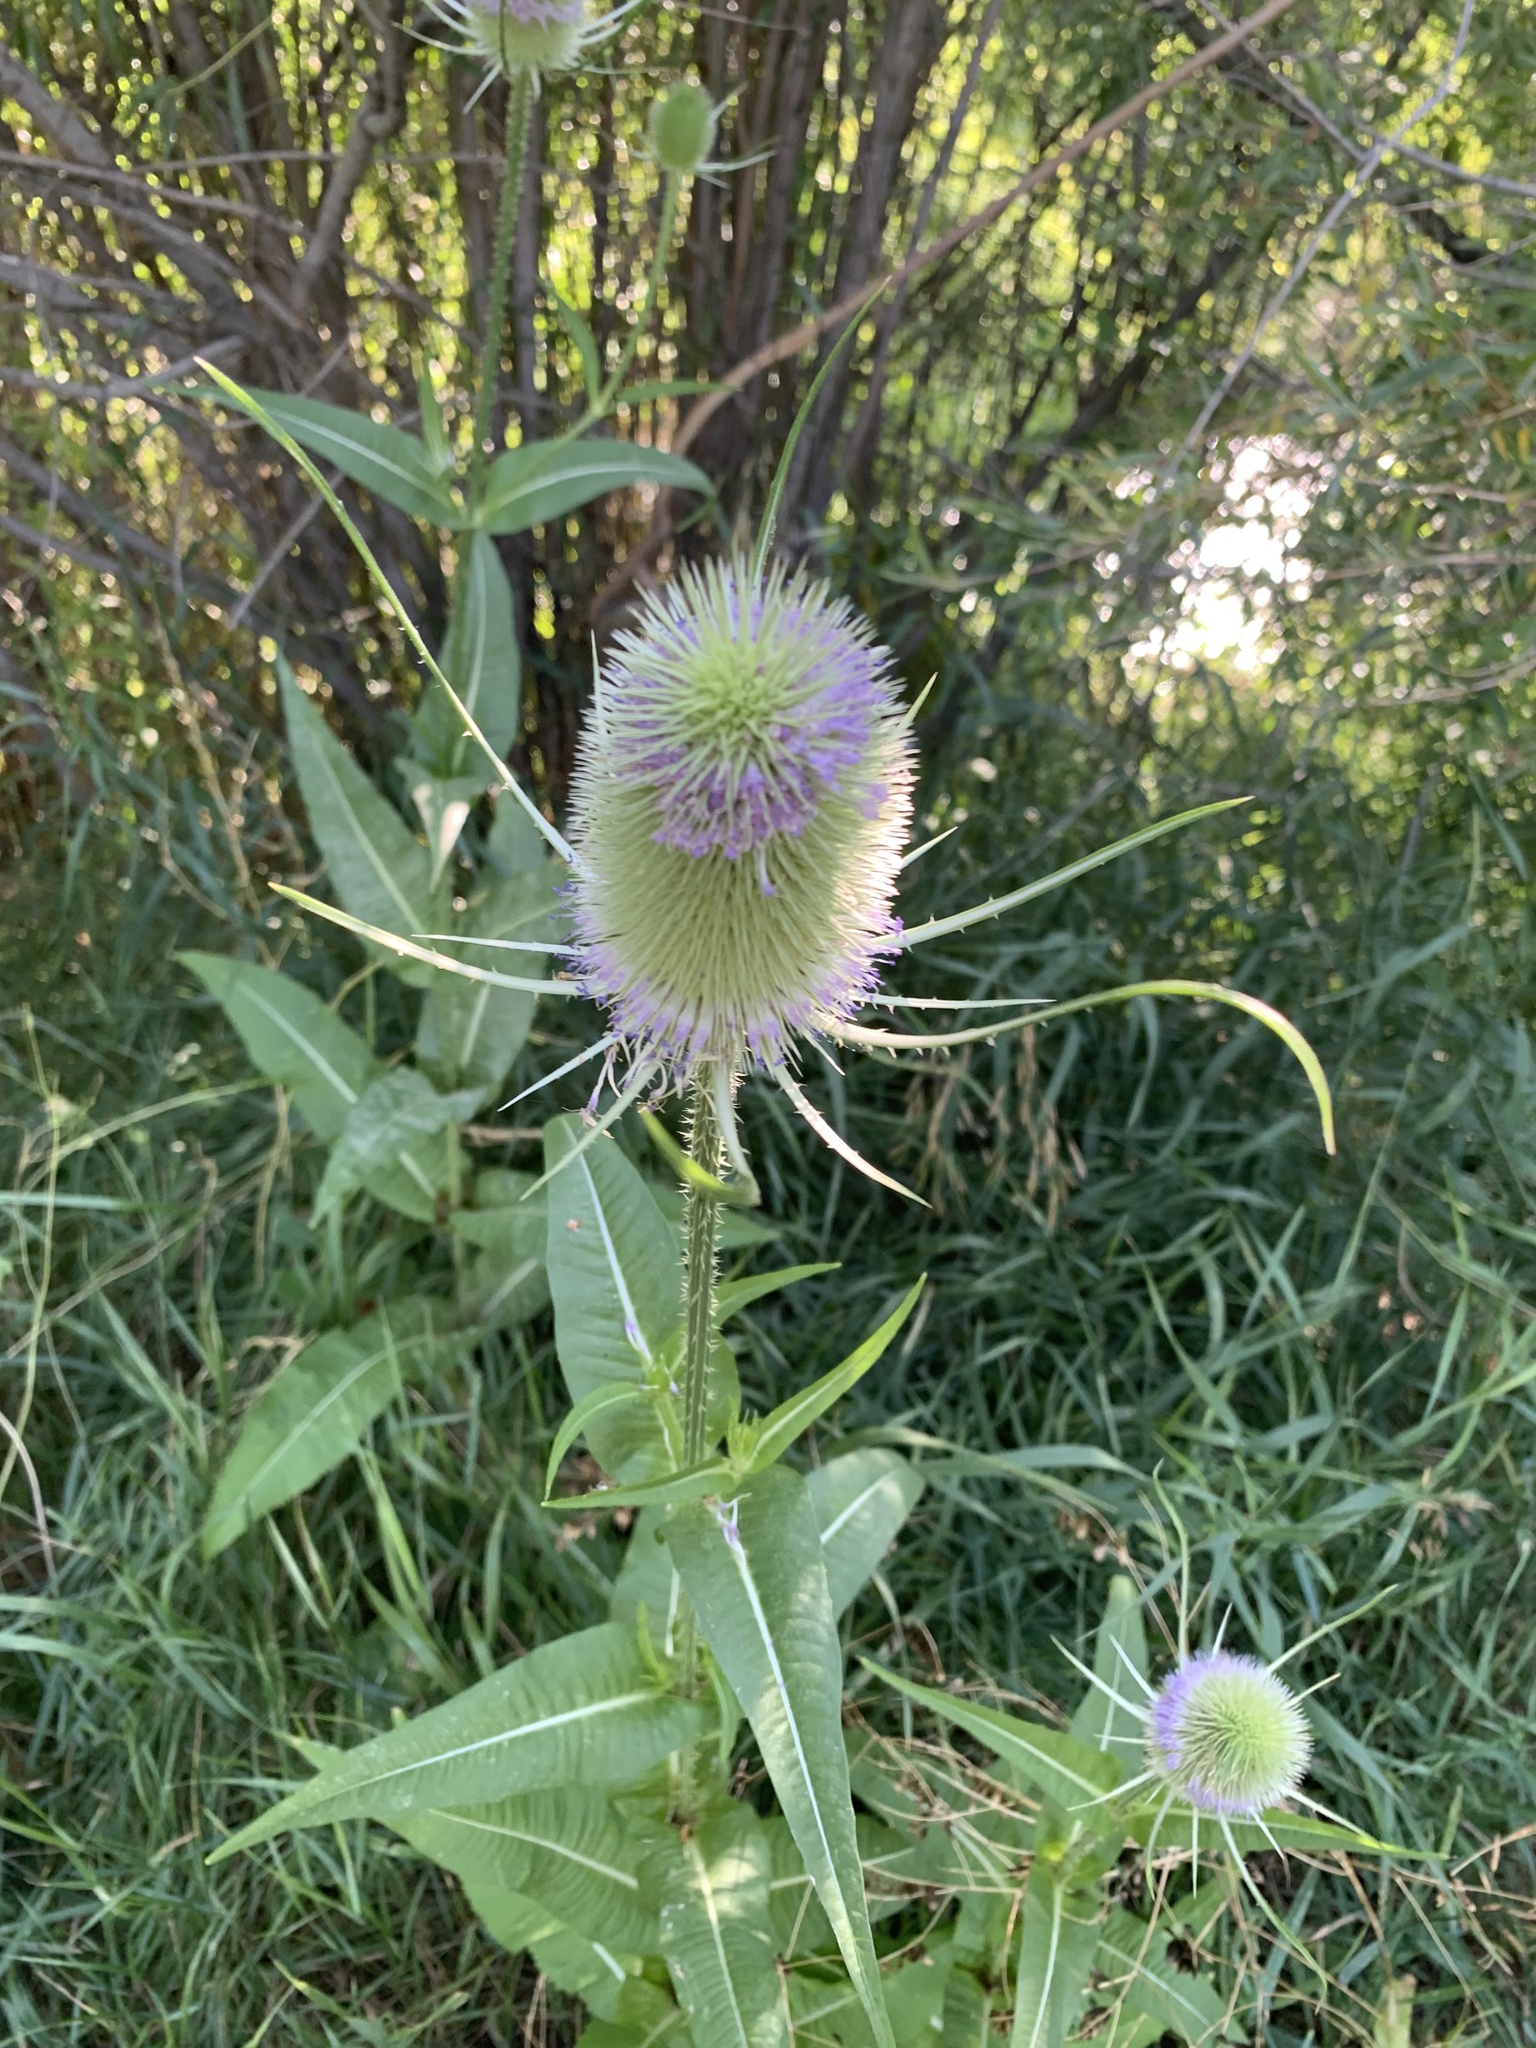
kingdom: Plantae
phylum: Tracheophyta
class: Magnoliopsida
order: Dipsacales
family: Caprifoliaceae
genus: Dipsacus
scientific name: Dipsacus fullonum
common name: Teasel
